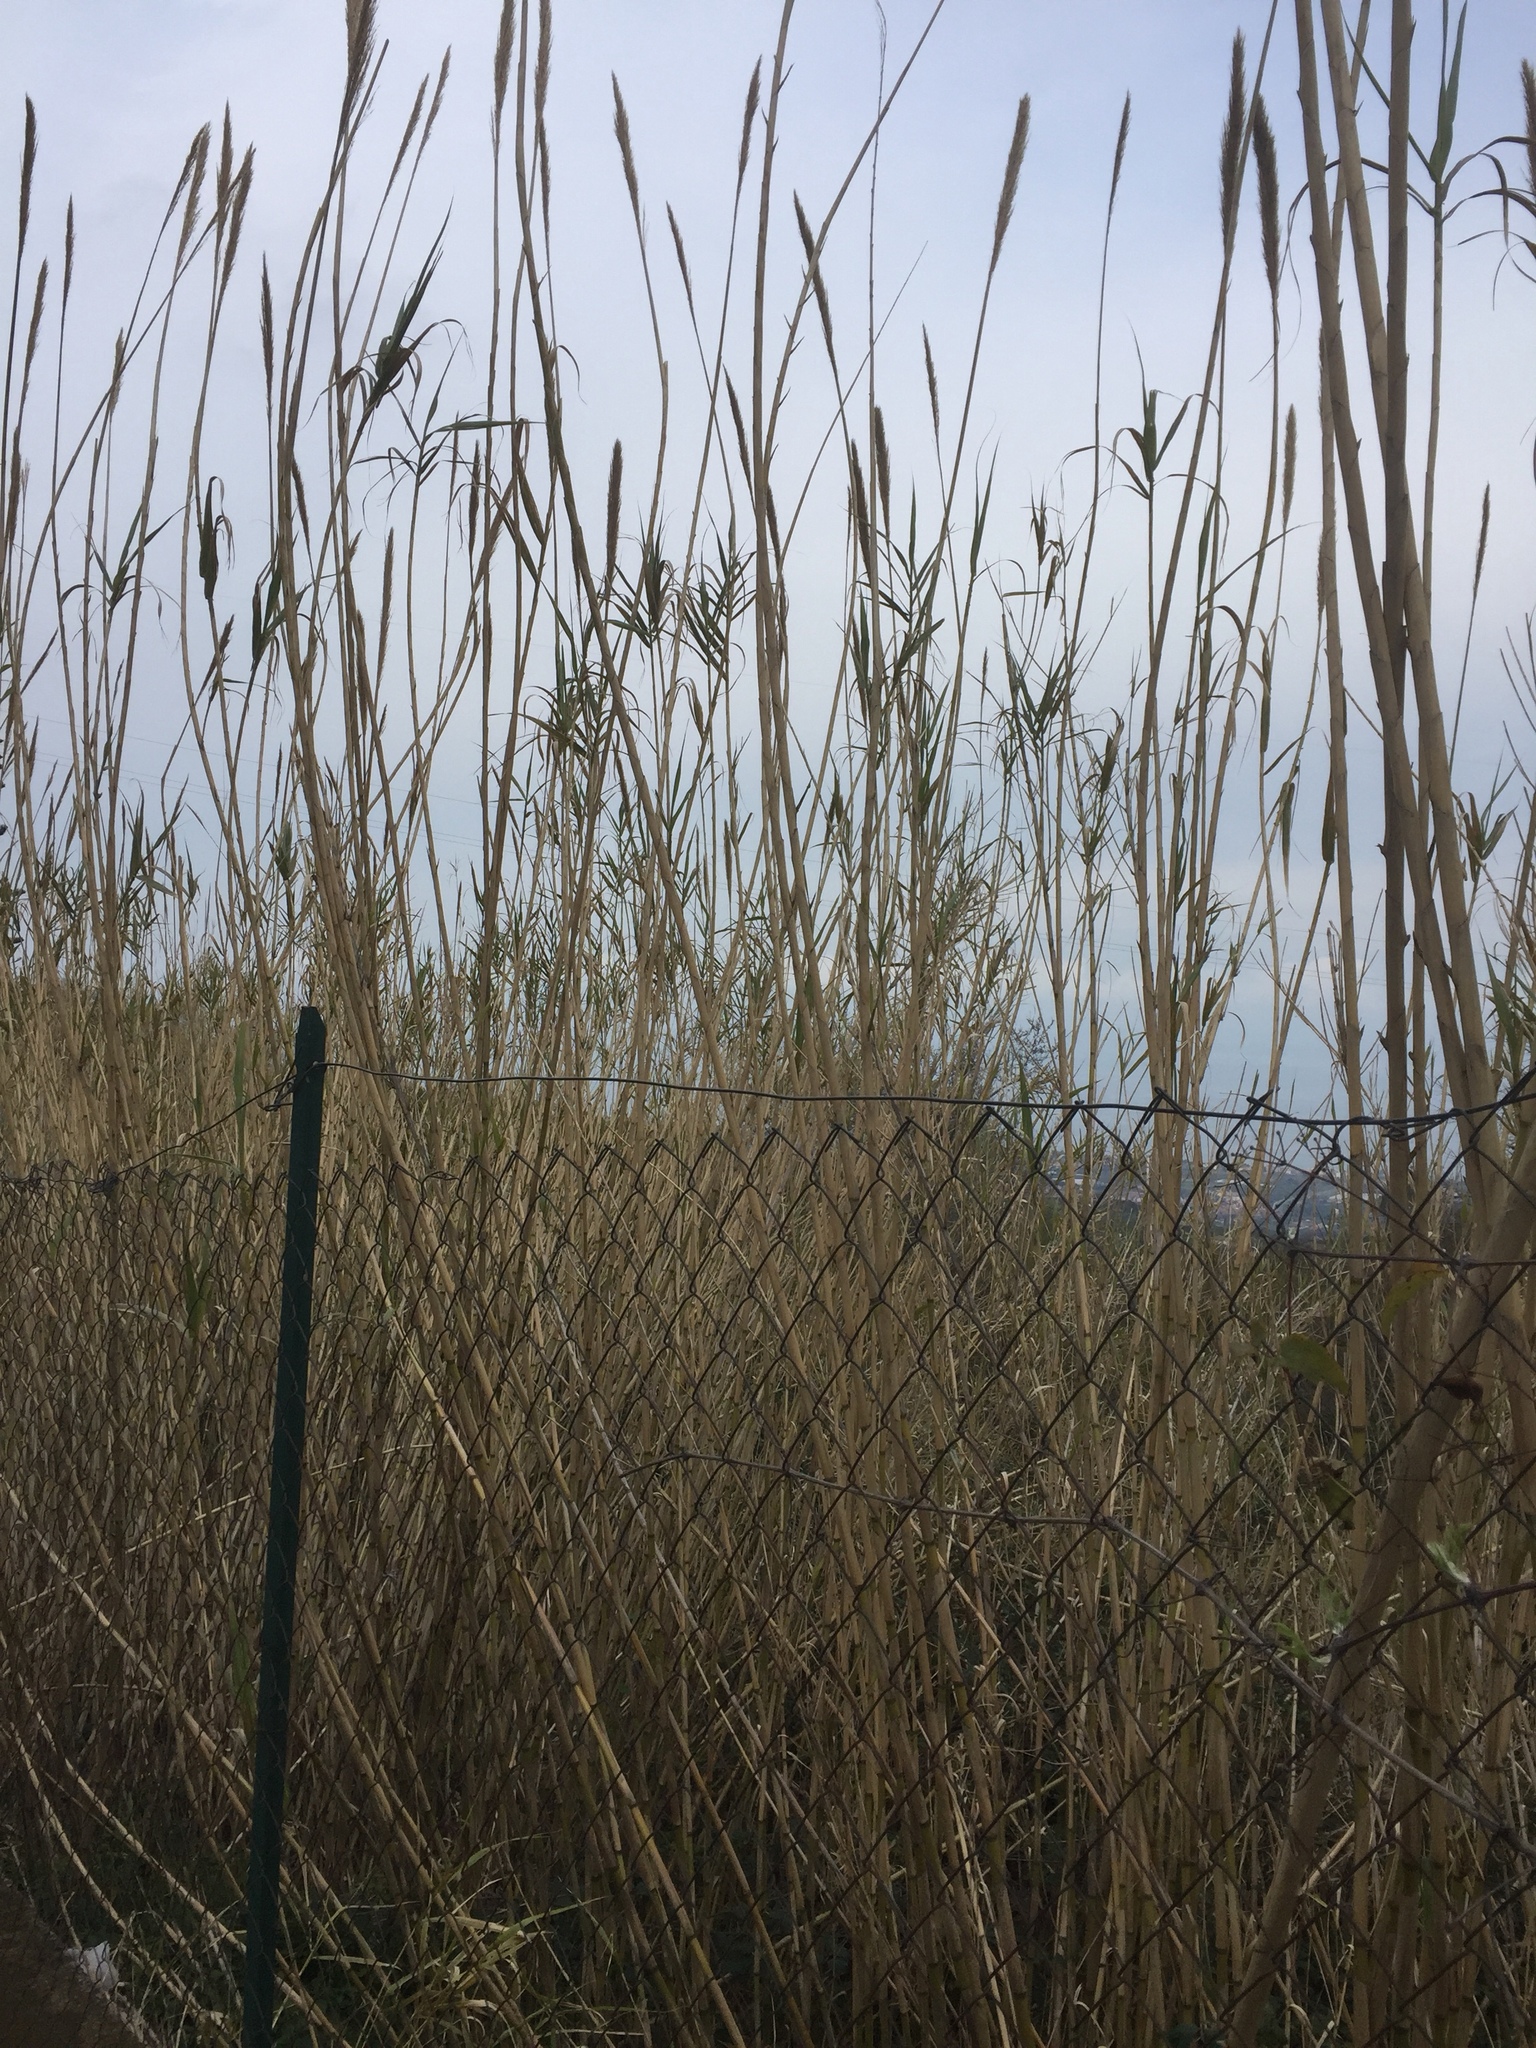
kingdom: Plantae
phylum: Tracheophyta
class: Liliopsida
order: Poales
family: Poaceae
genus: Arundo
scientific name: Arundo donax
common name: Giant reed
